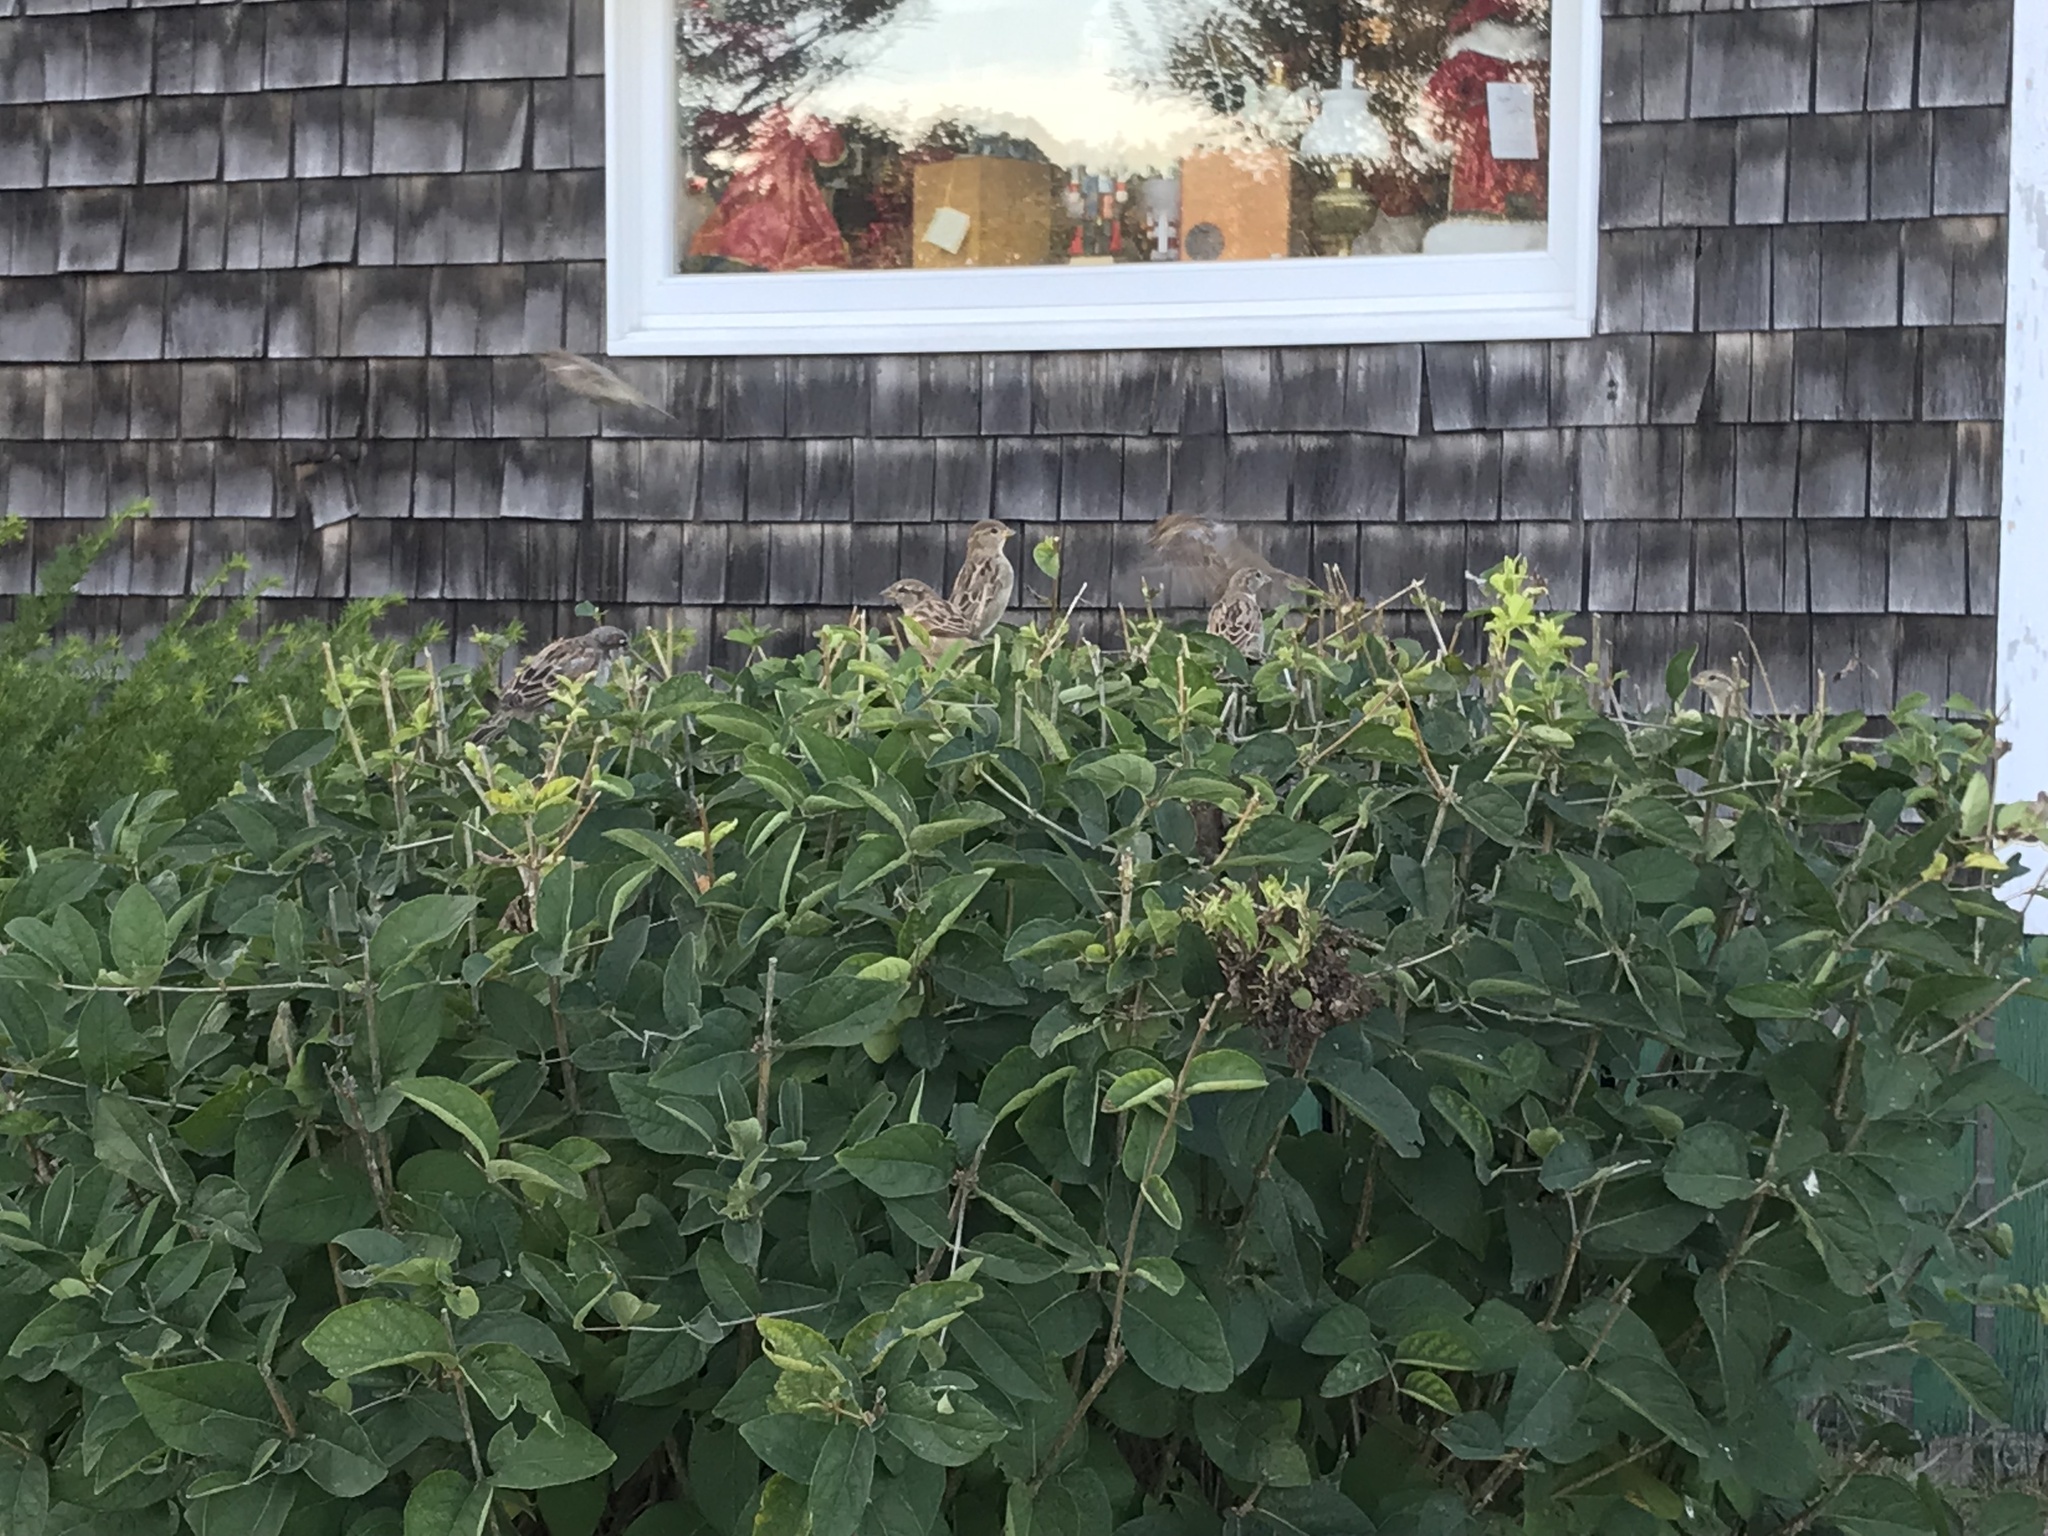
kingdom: Animalia
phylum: Chordata
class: Aves
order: Passeriformes
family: Passeridae
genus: Passer
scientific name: Passer domesticus
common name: House sparrow
